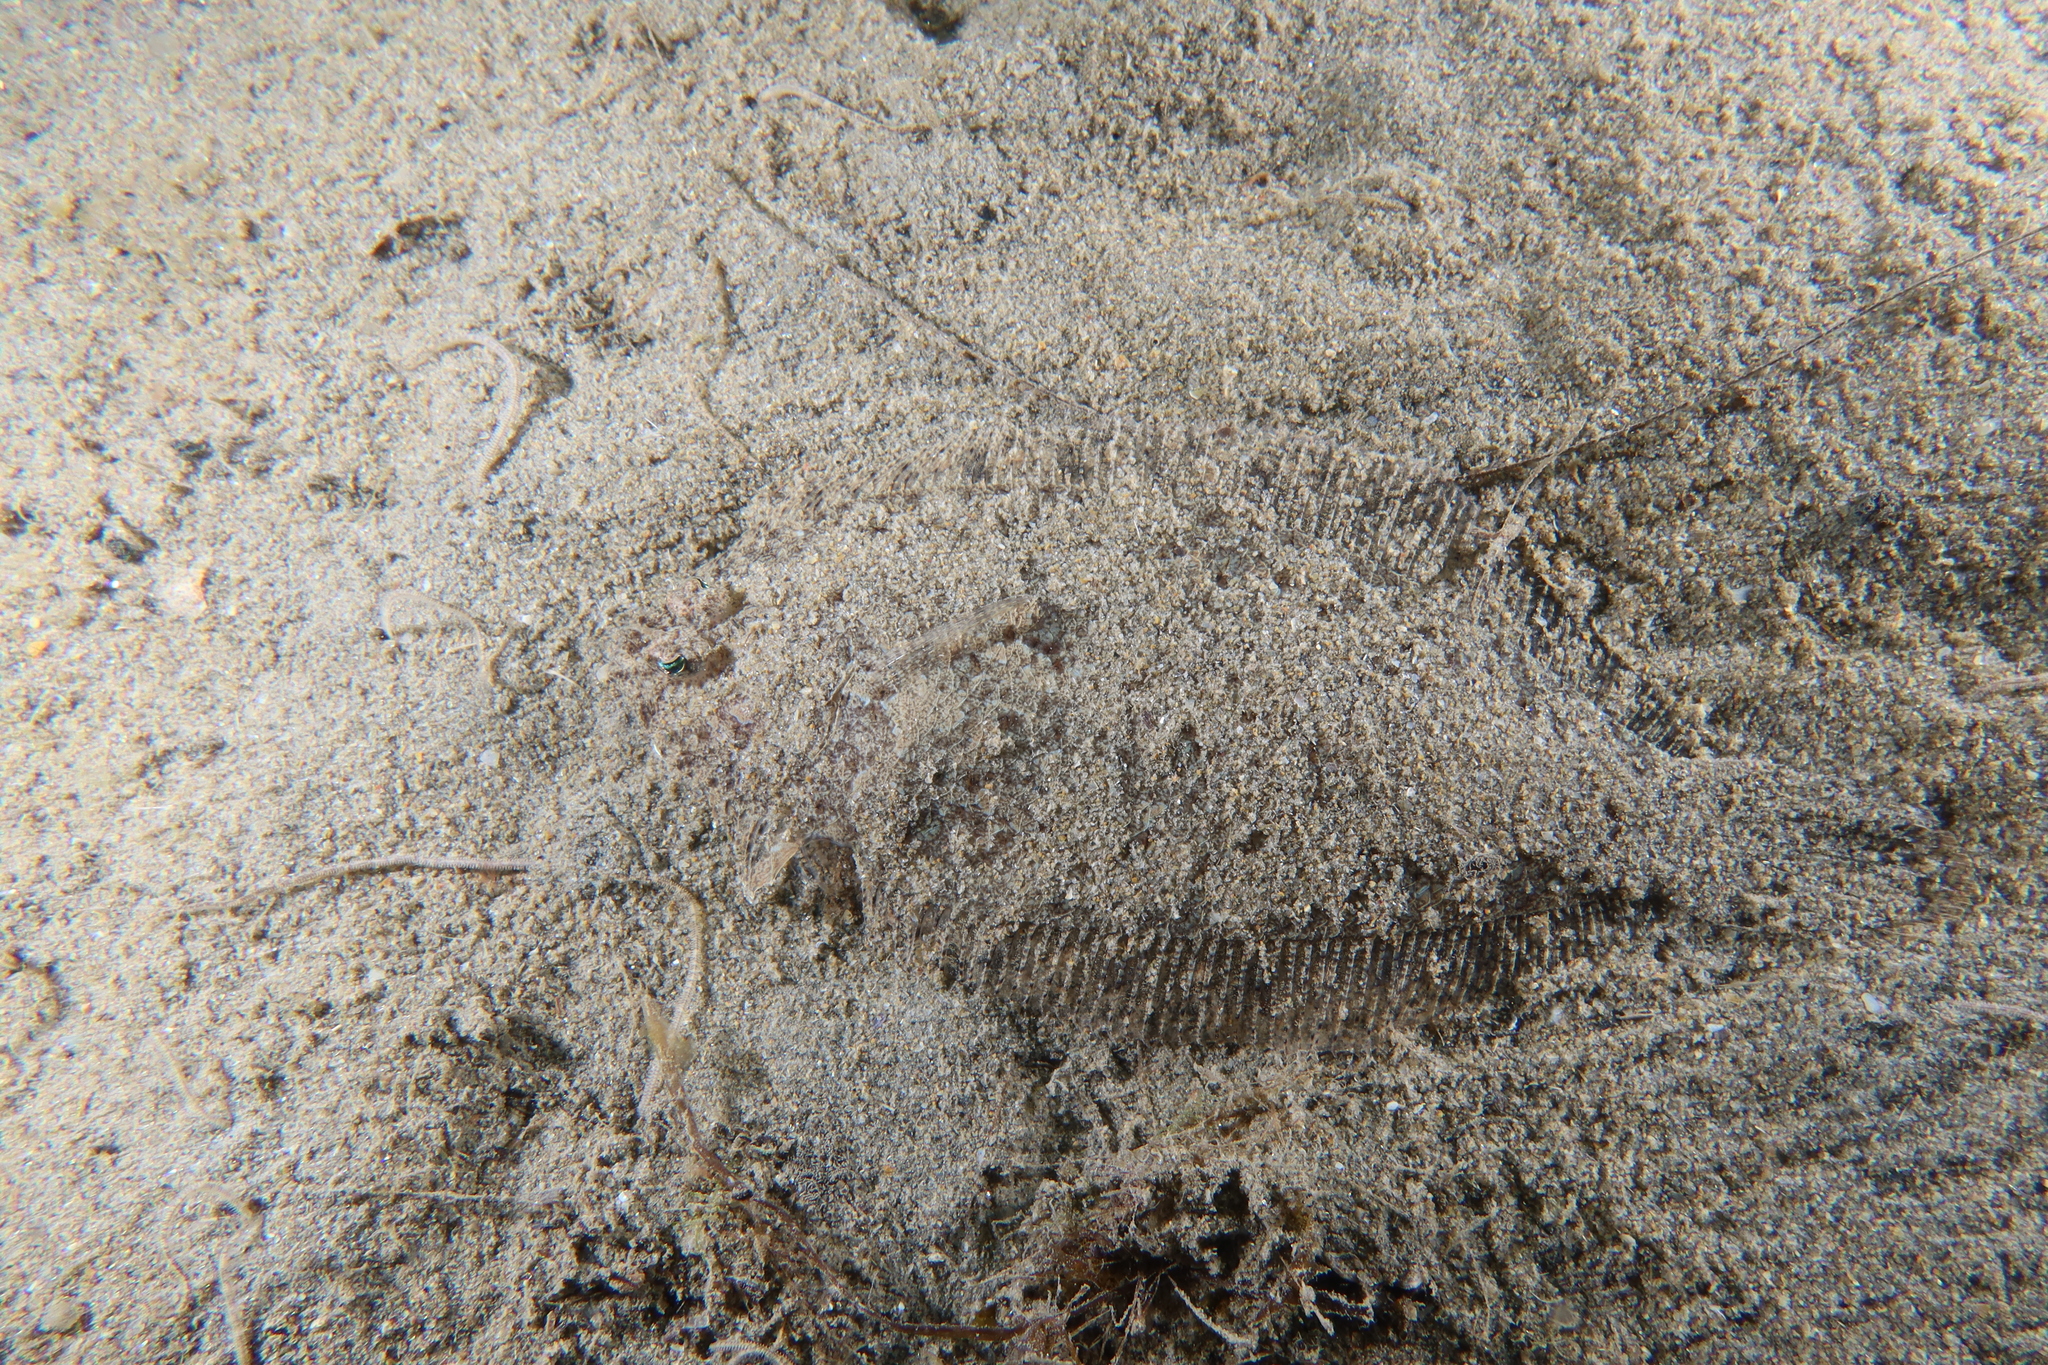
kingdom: Animalia
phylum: Chordata
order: Pleuronectiformes
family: Bothidae
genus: Arnoglossus
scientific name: Arnoglossus laterna
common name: Scaldfish
